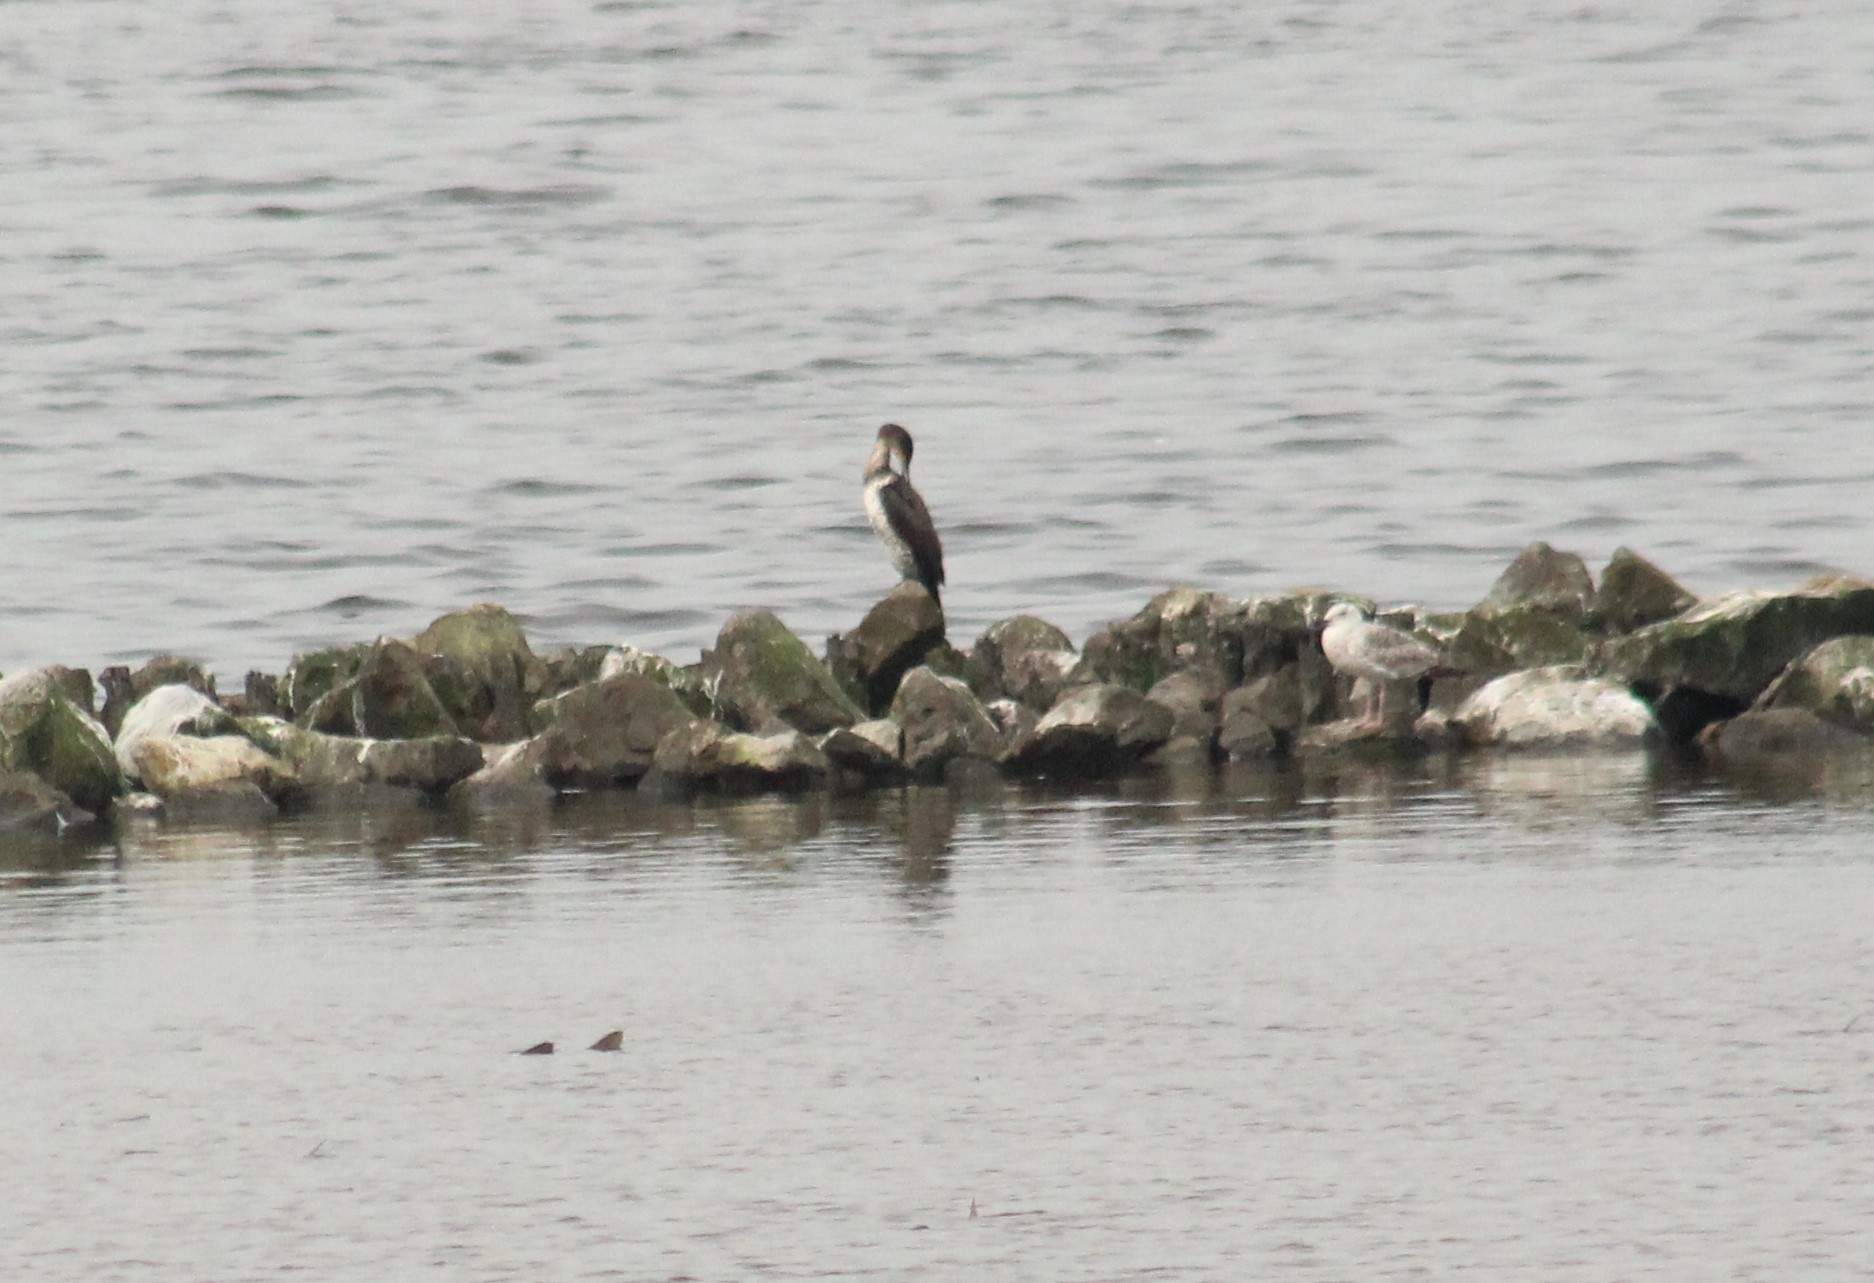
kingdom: Animalia
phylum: Chordata
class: Aves
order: Suliformes
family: Phalacrocoracidae
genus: Phalacrocorax
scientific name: Phalacrocorax carbo
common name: Great cormorant
